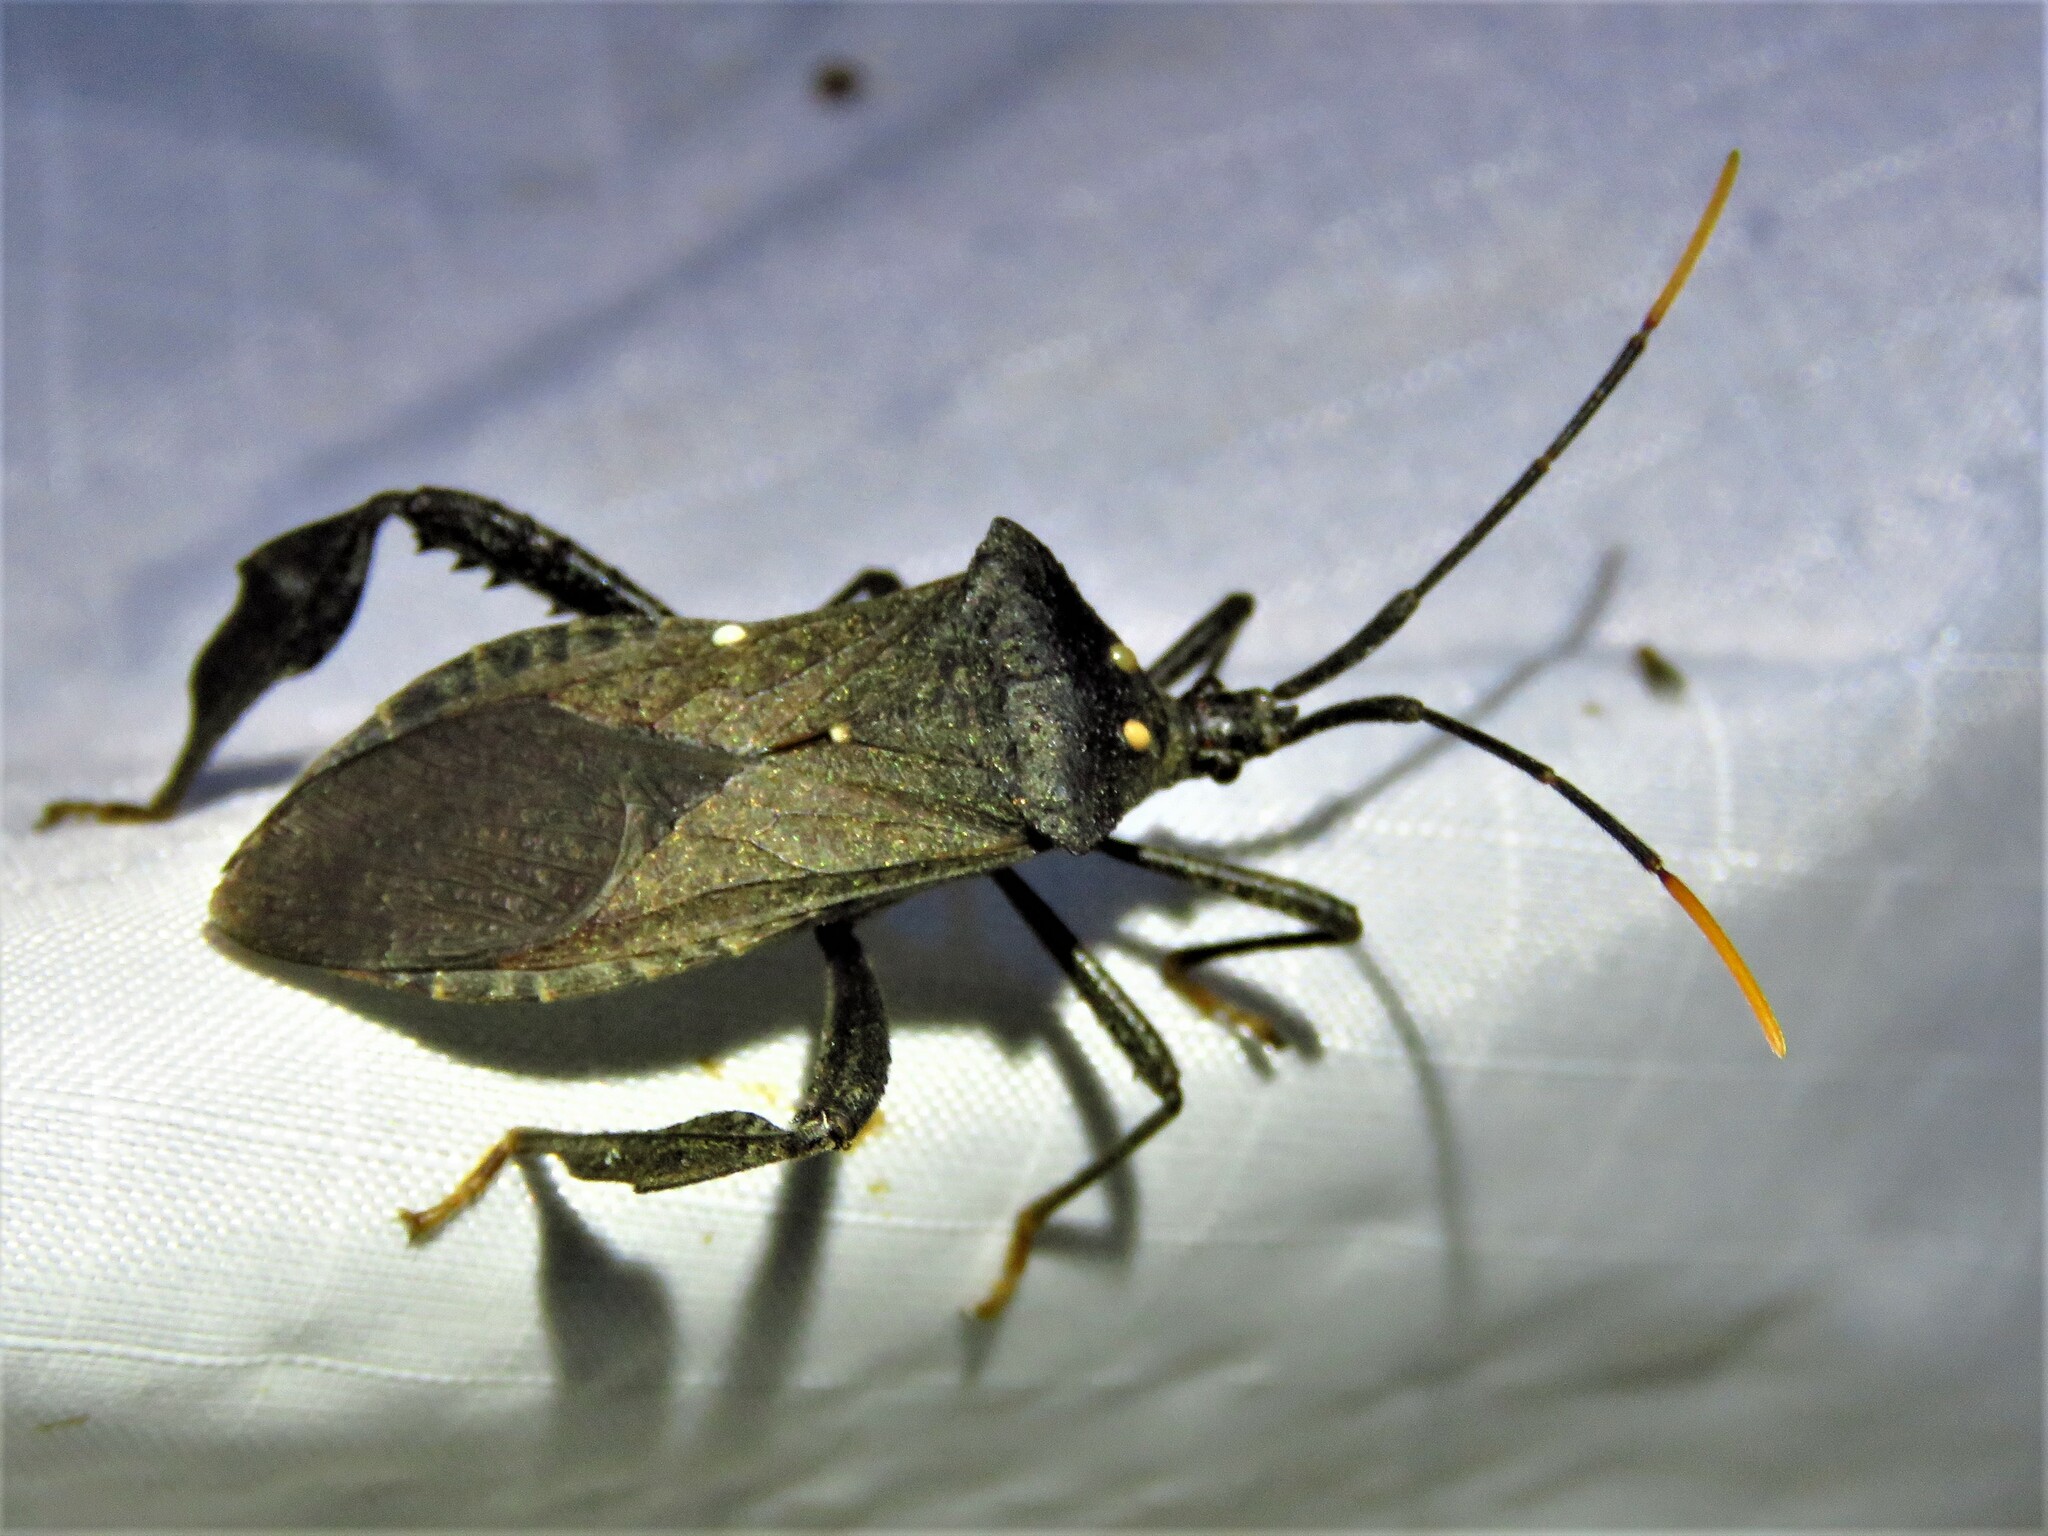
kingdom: Animalia
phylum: Arthropoda
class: Insecta
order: Hemiptera
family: Coreidae
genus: Acanthocephala
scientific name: Acanthocephala terminalis
